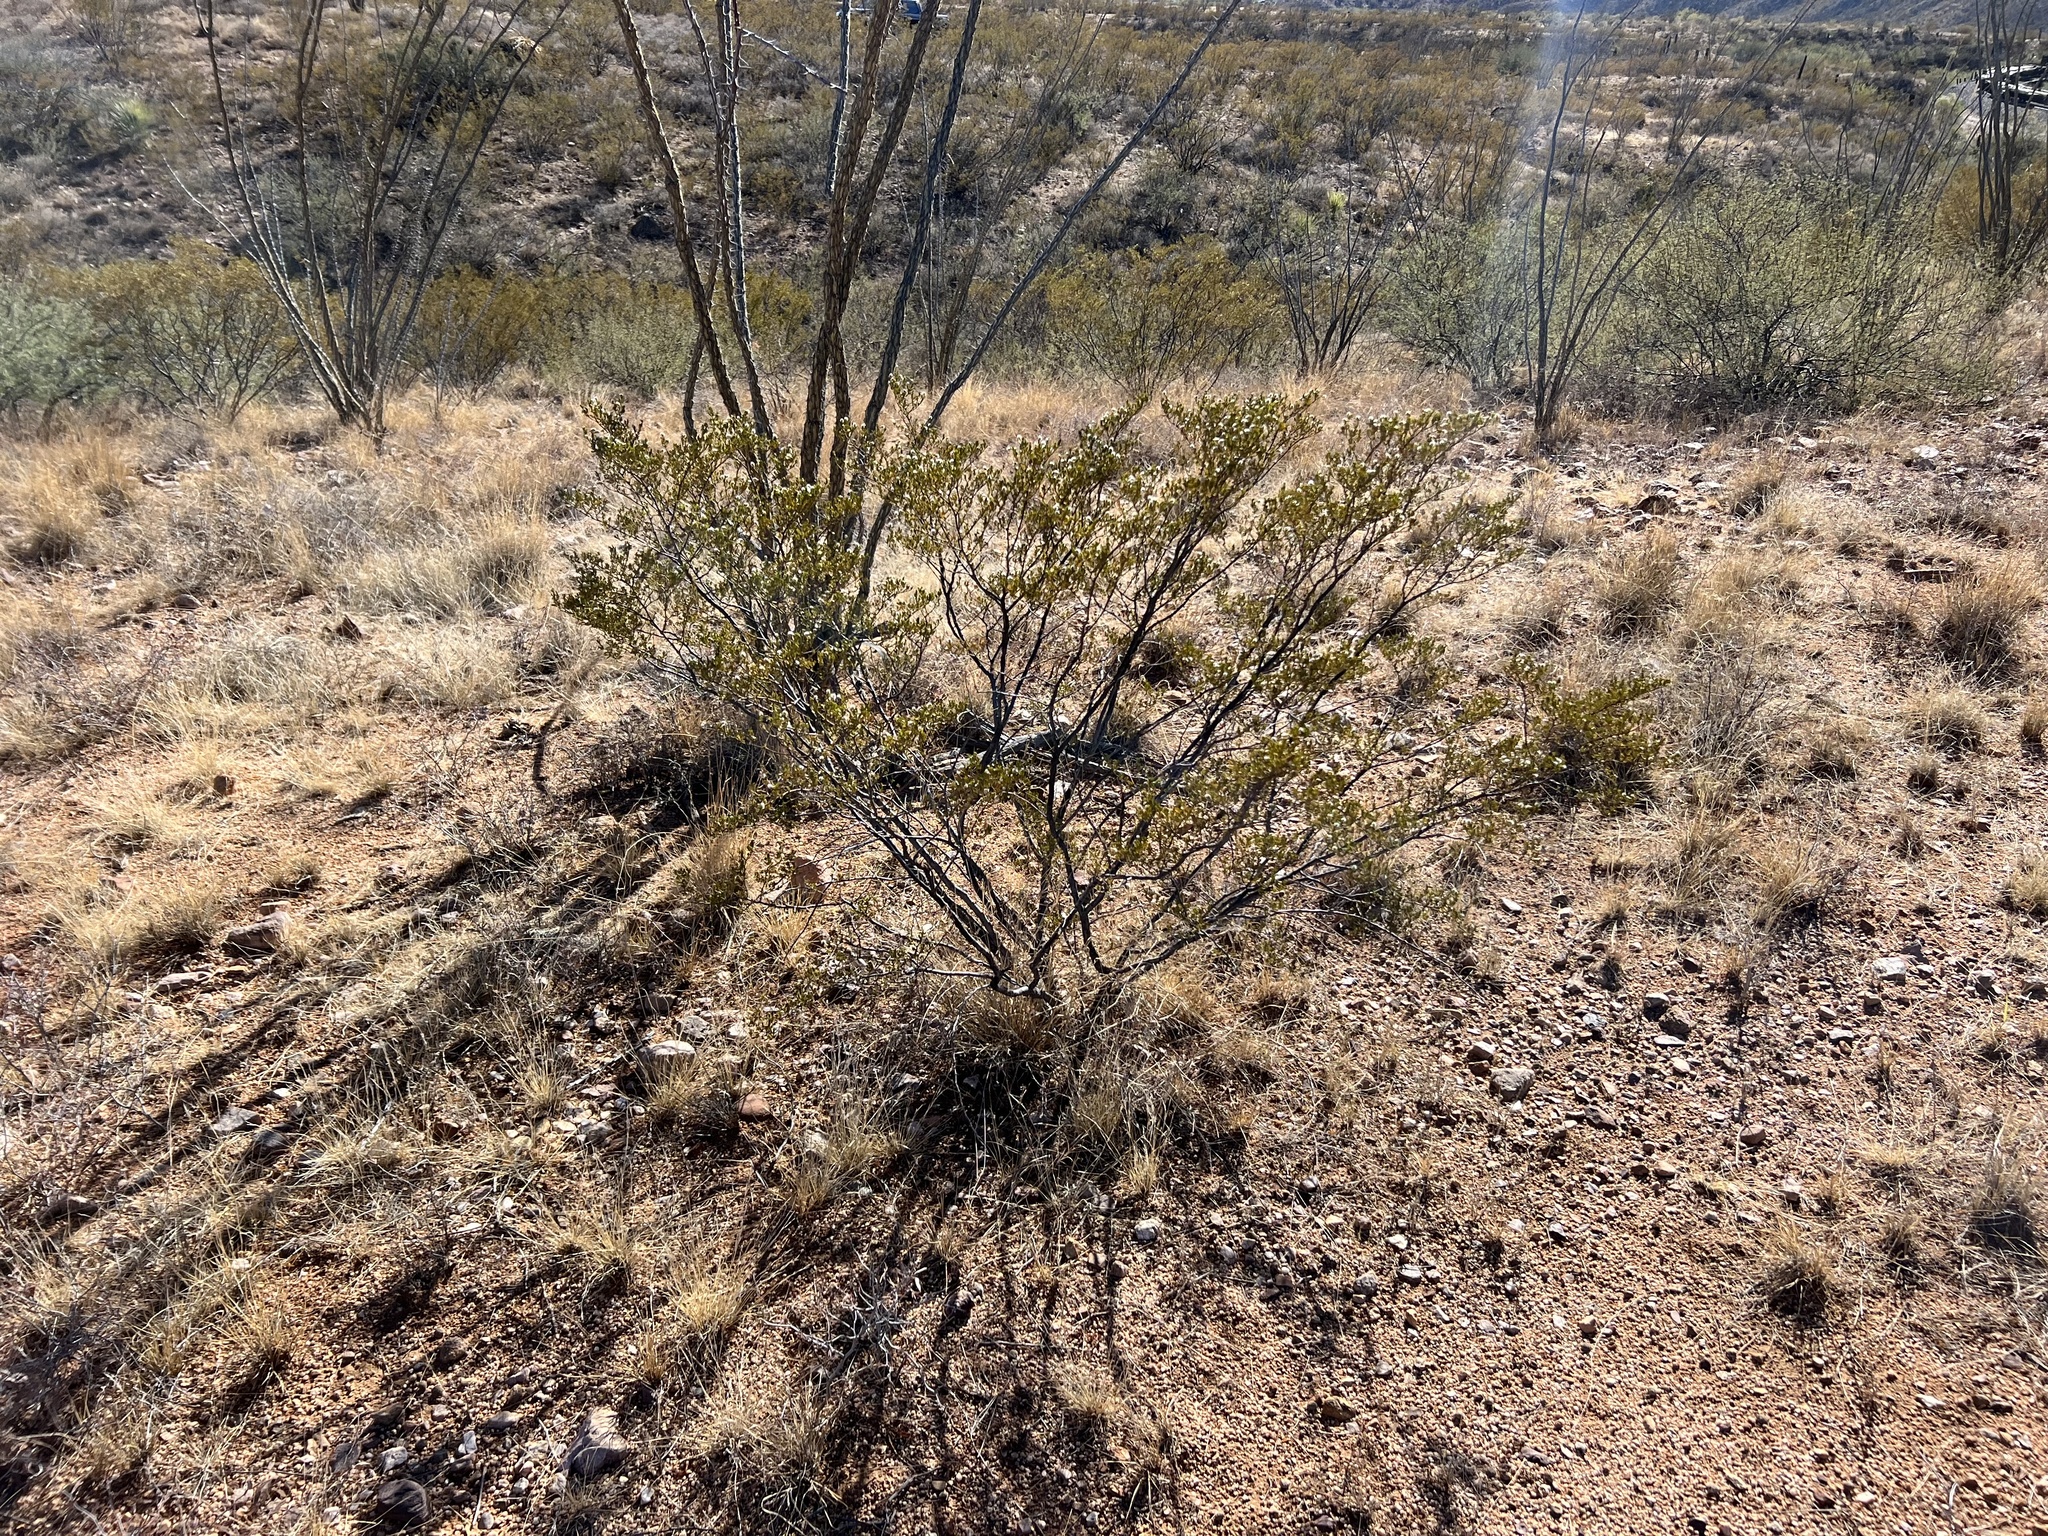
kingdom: Plantae
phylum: Tracheophyta
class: Magnoliopsida
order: Zygophyllales
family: Zygophyllaceae
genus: Larrea
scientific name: Larrea tridentata
